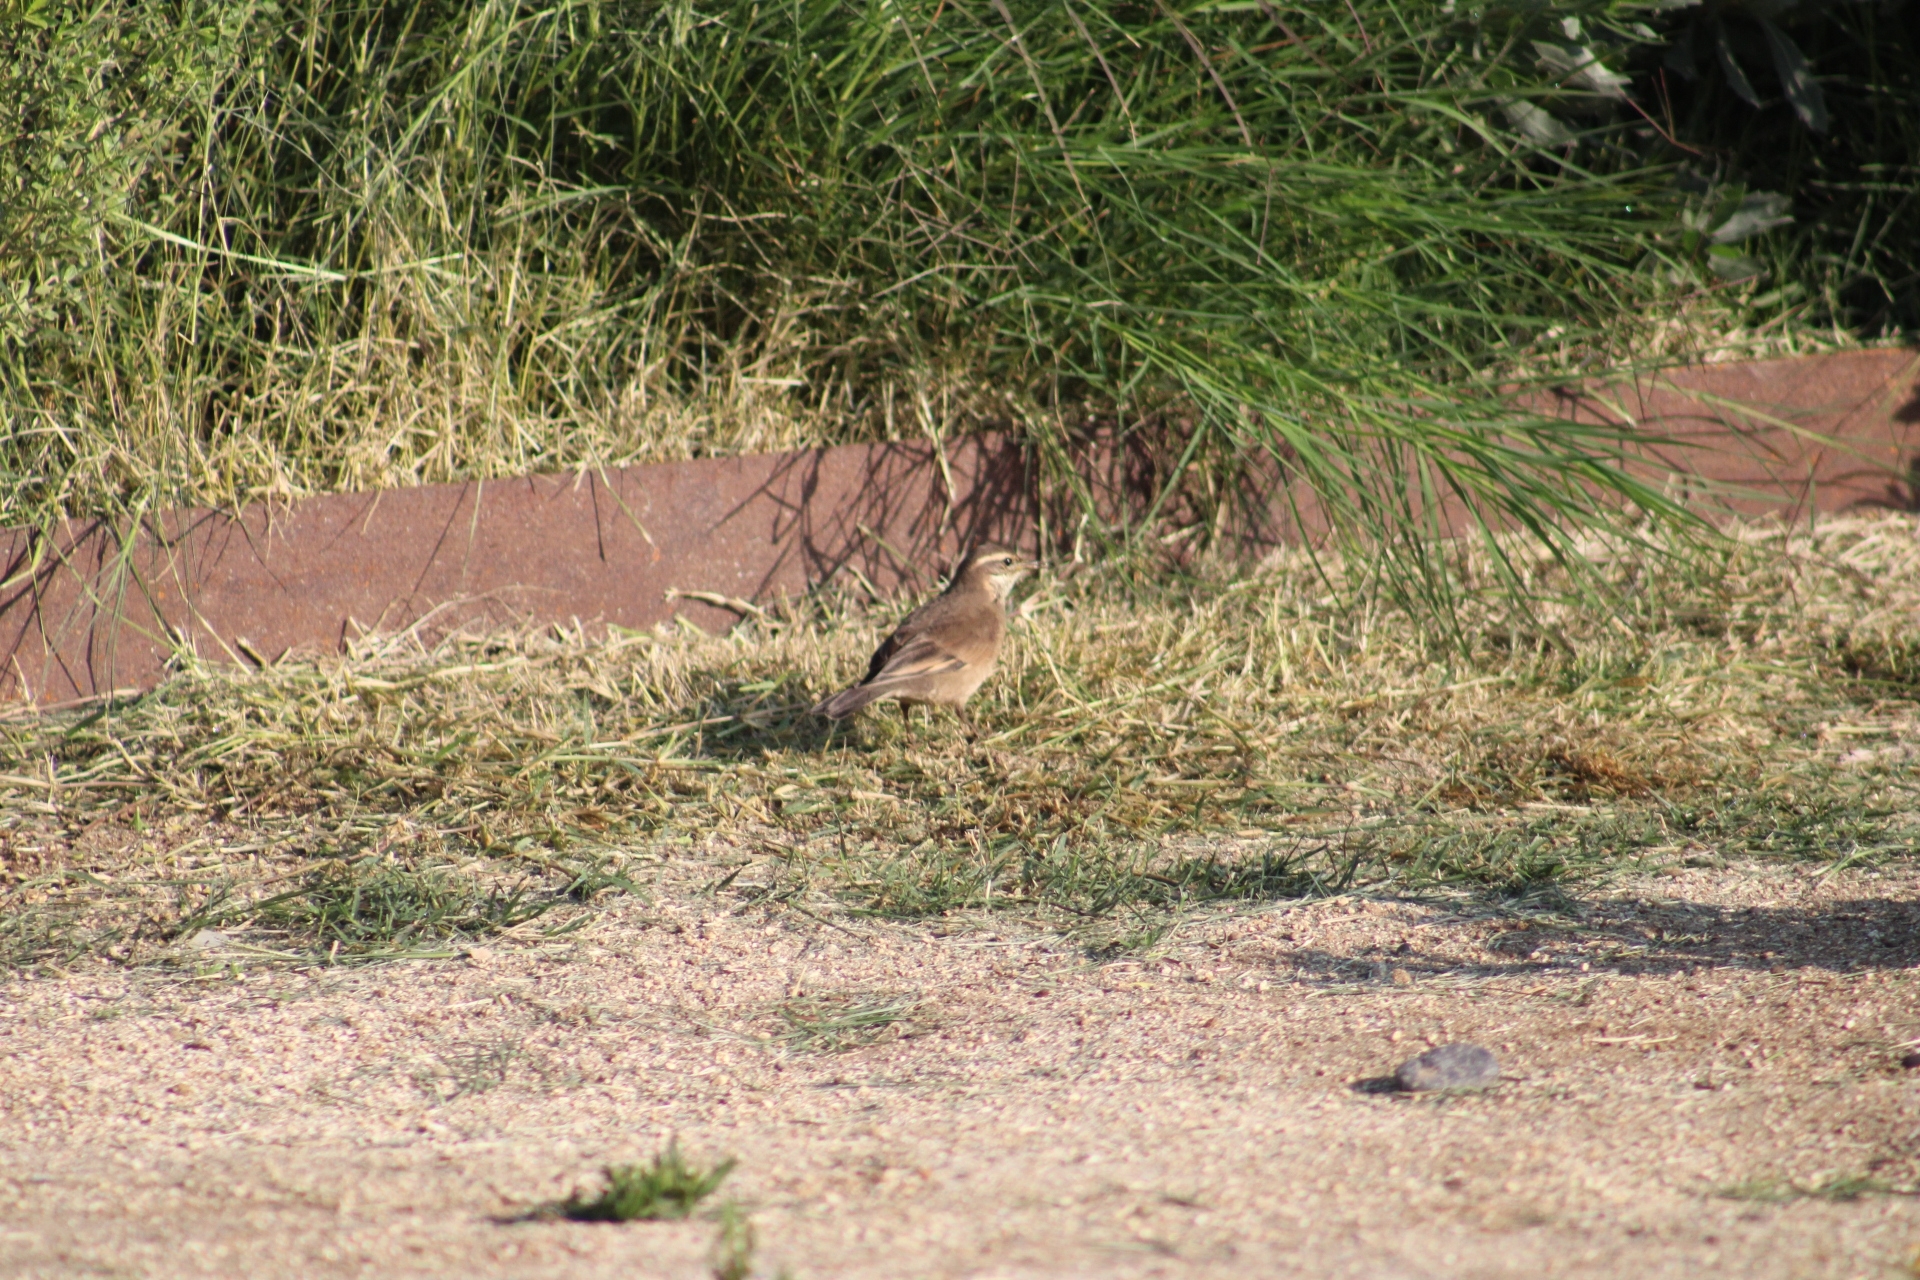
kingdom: Animalia
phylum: Chordata
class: Aves
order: Passeriformes
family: Furnariidae
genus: Cinclodes
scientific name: Cinclodes fuscus
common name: Buff-winged cinclodes
